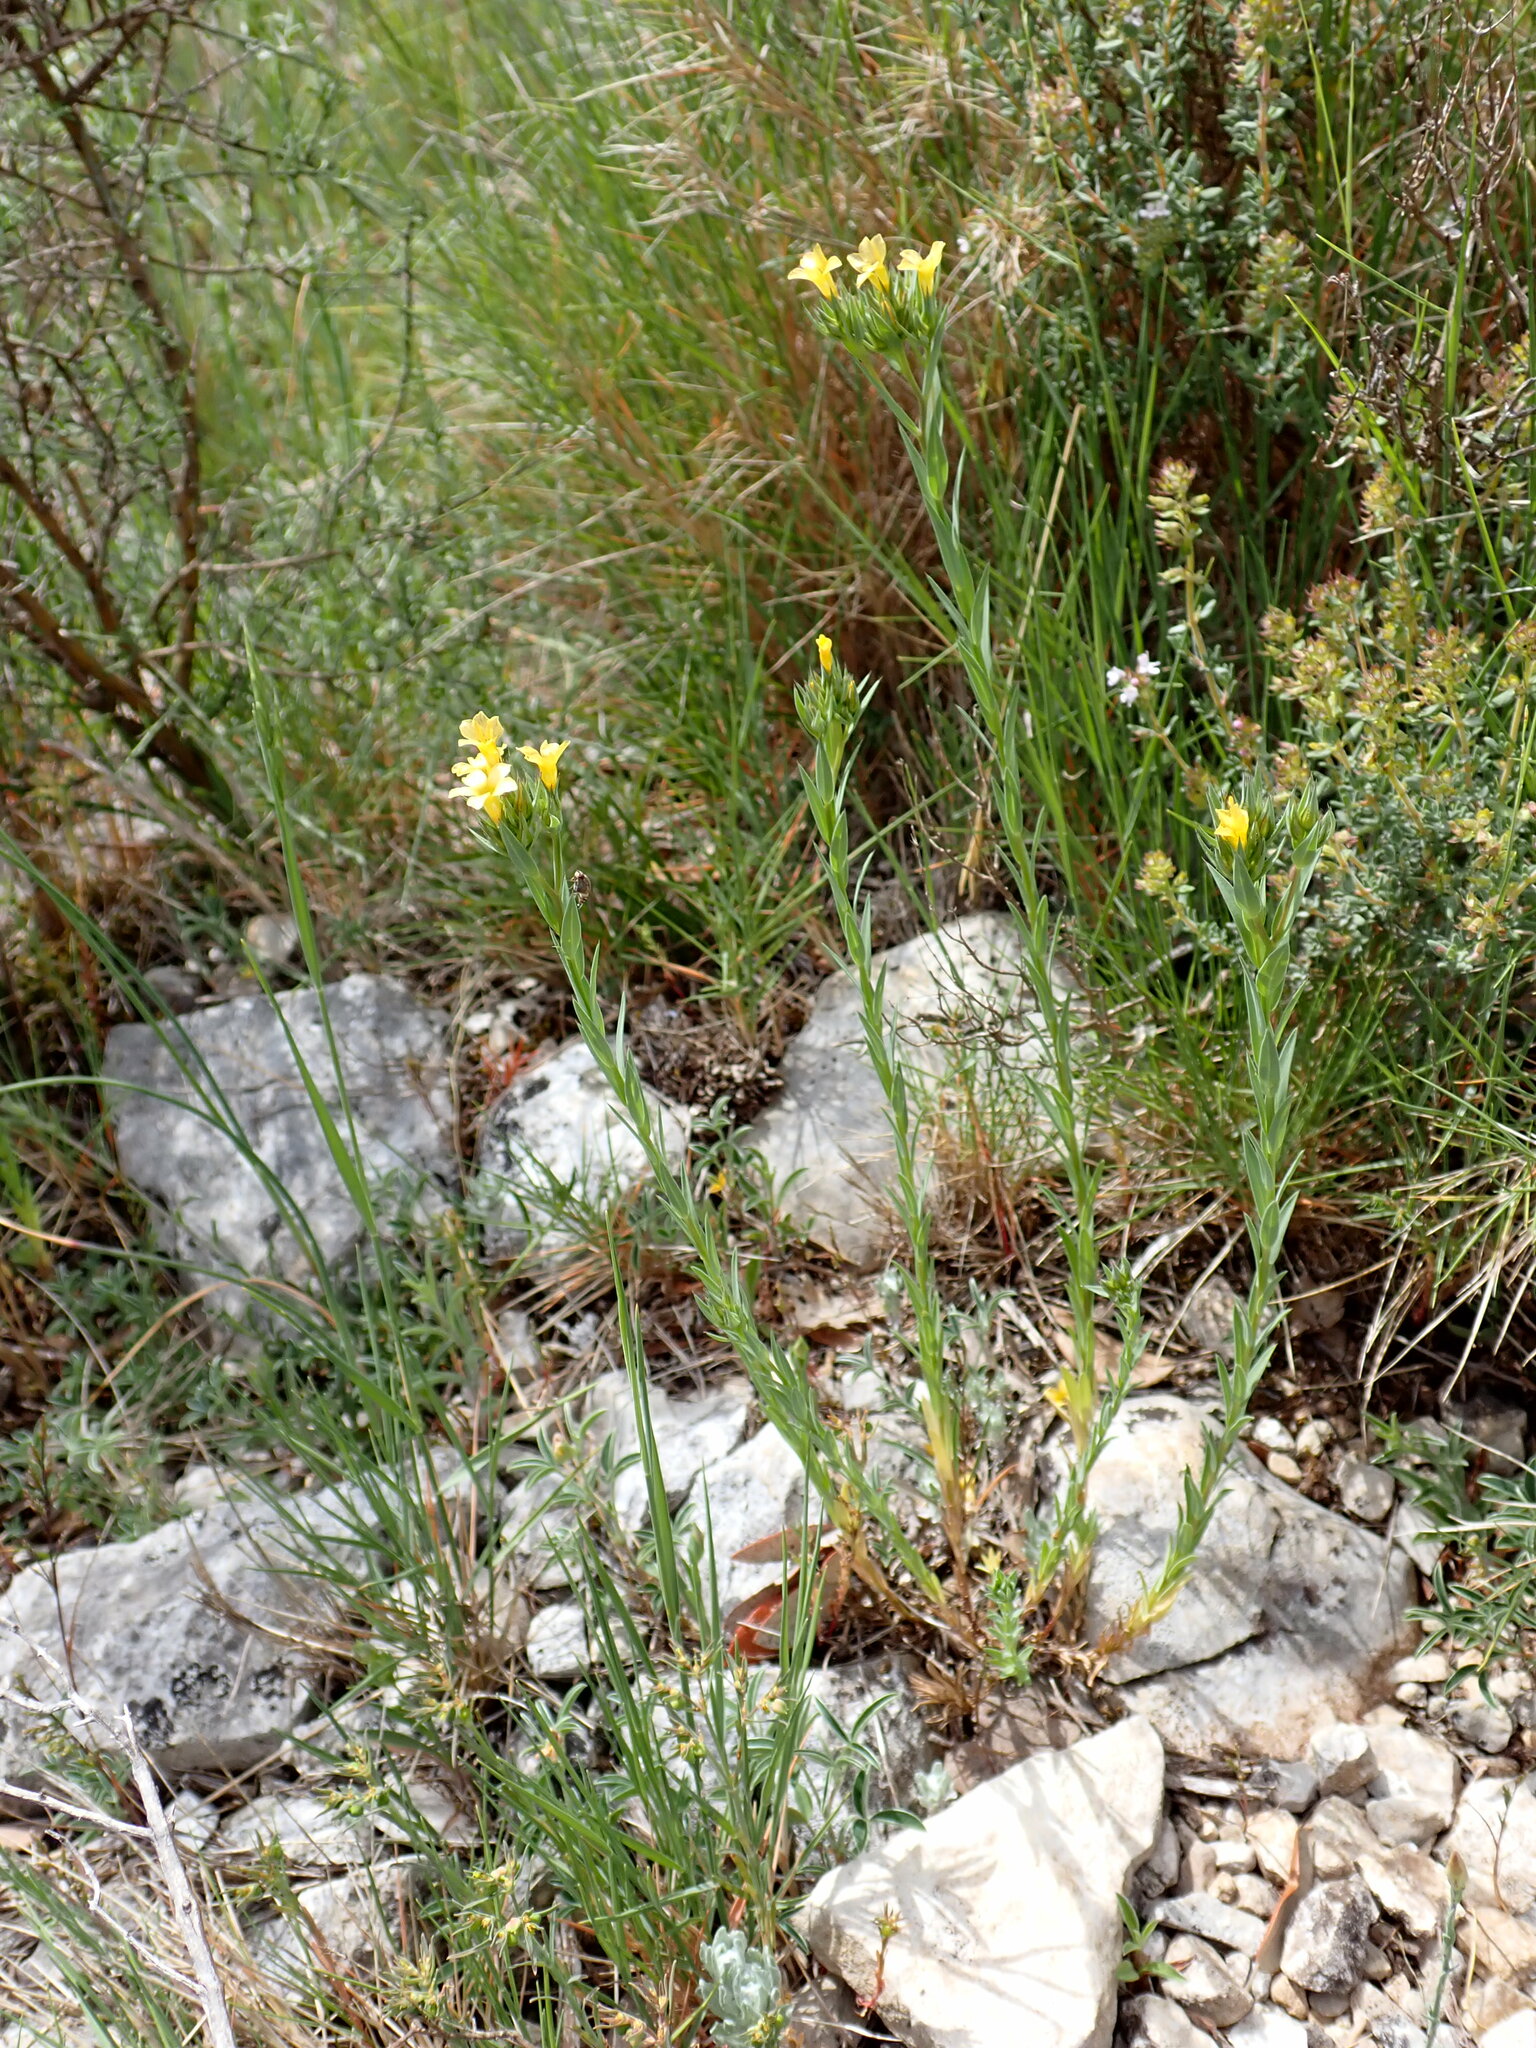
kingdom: Plantae
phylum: Tracheophyta
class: Magnoliopsida
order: Malpighiales
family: Linaceae
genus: Linum
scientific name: Linum strictum
